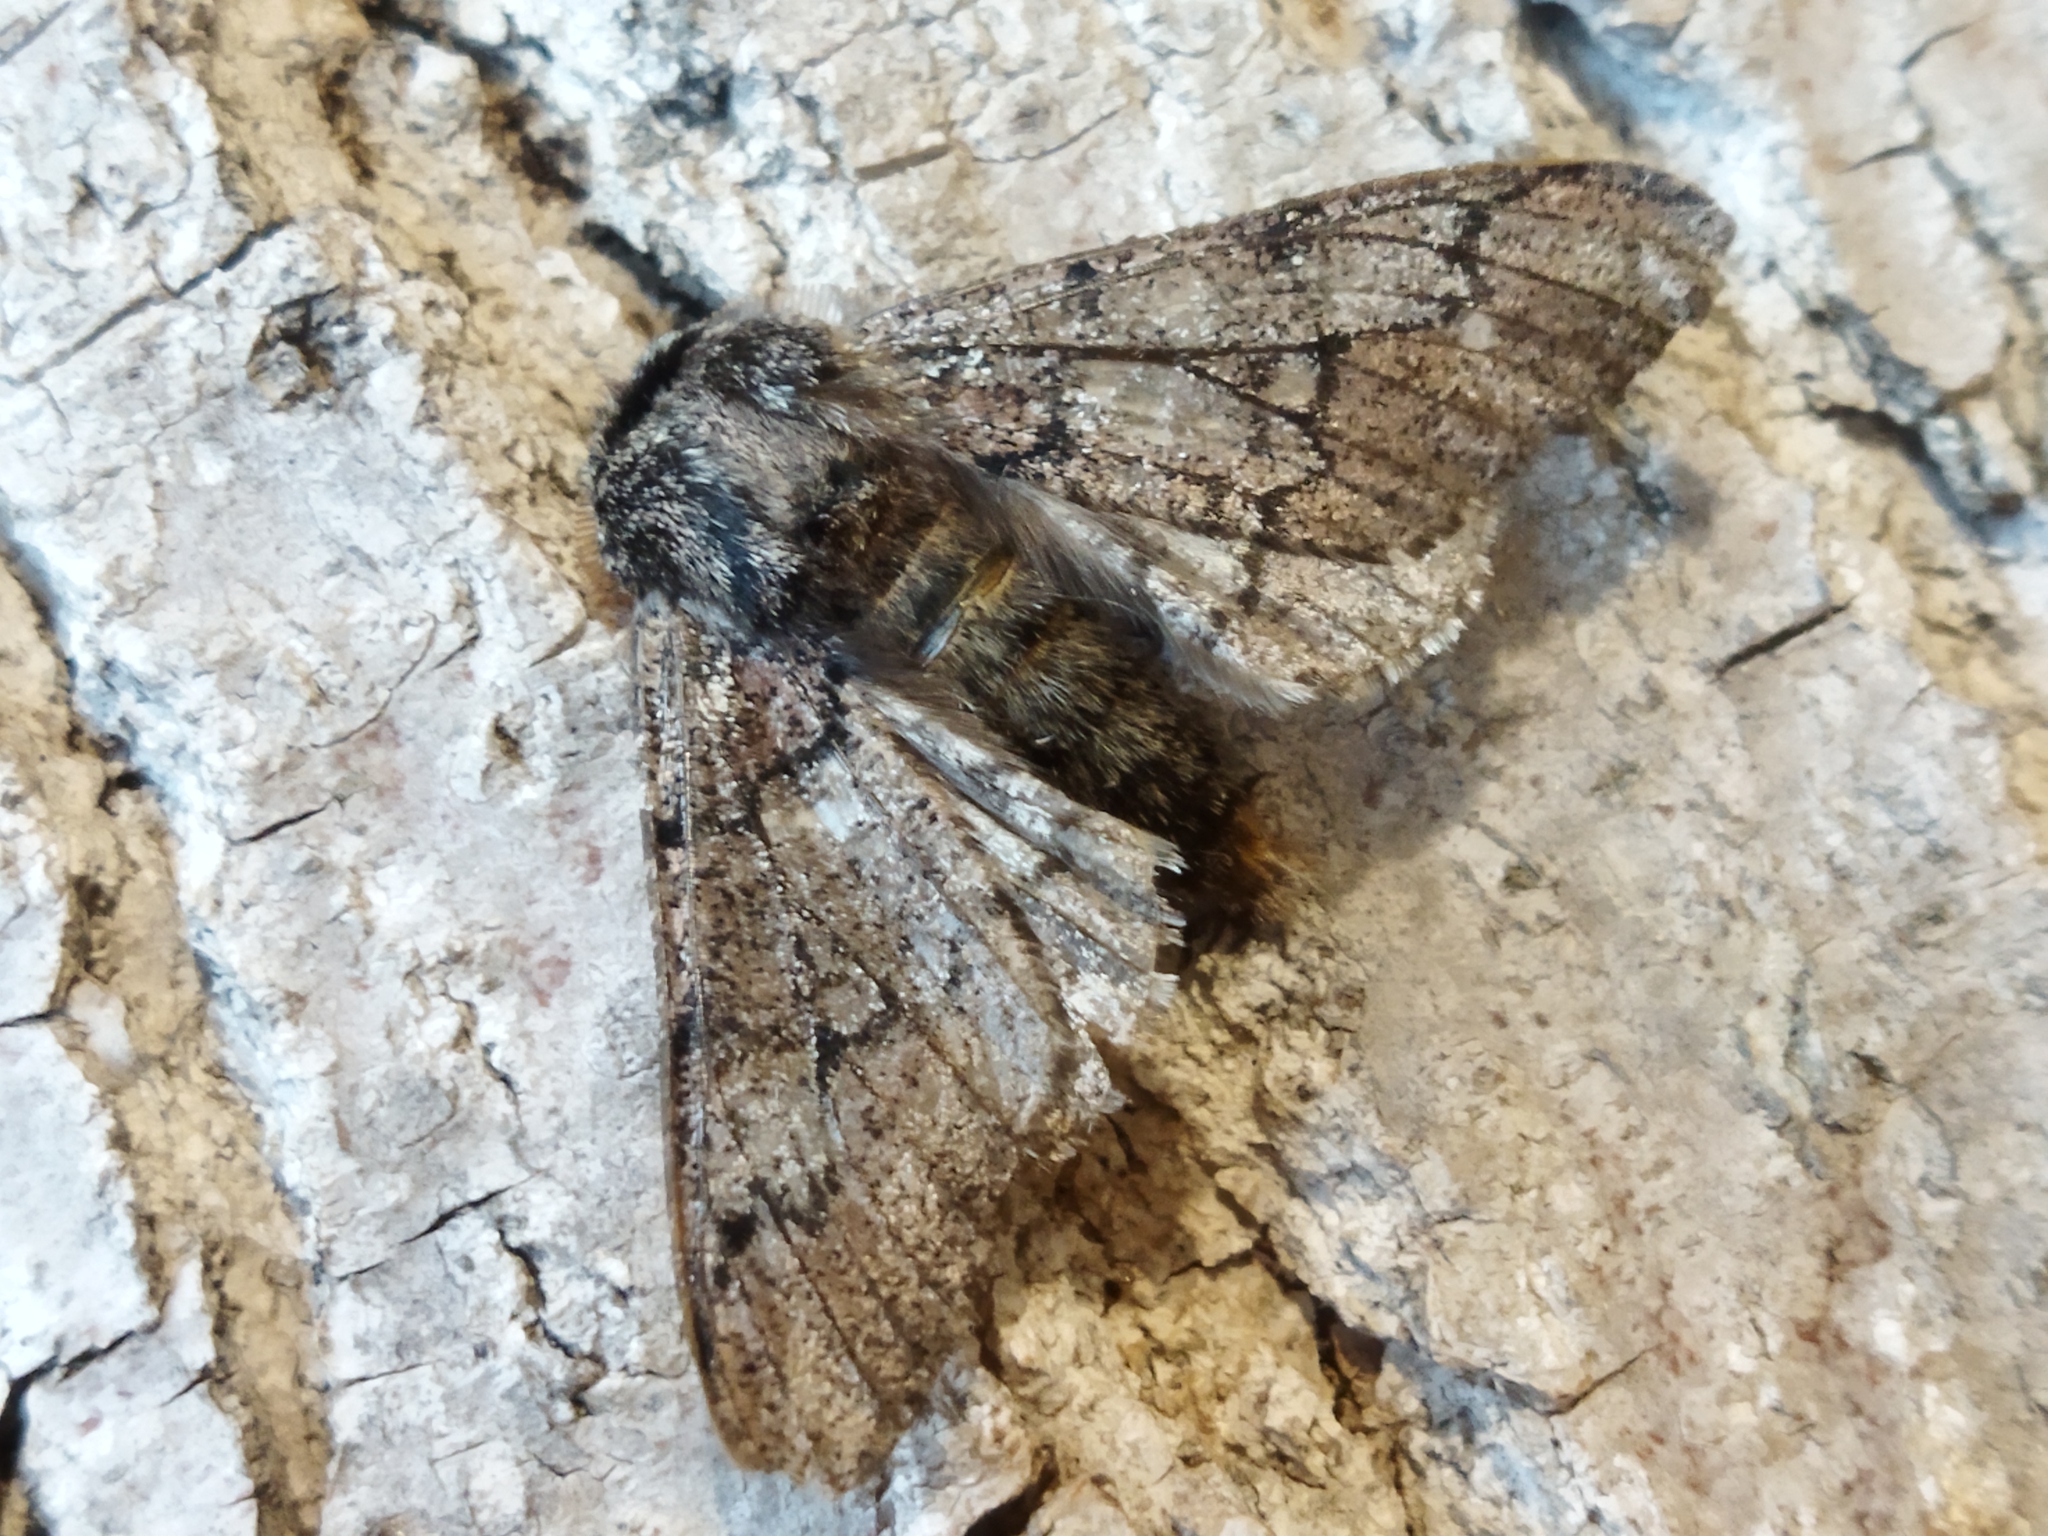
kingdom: Animalia
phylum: Arthropoda
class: Insecta
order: Lepidoptera
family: Geometridae
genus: Biston
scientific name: Biston strataria
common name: Oak beauty
